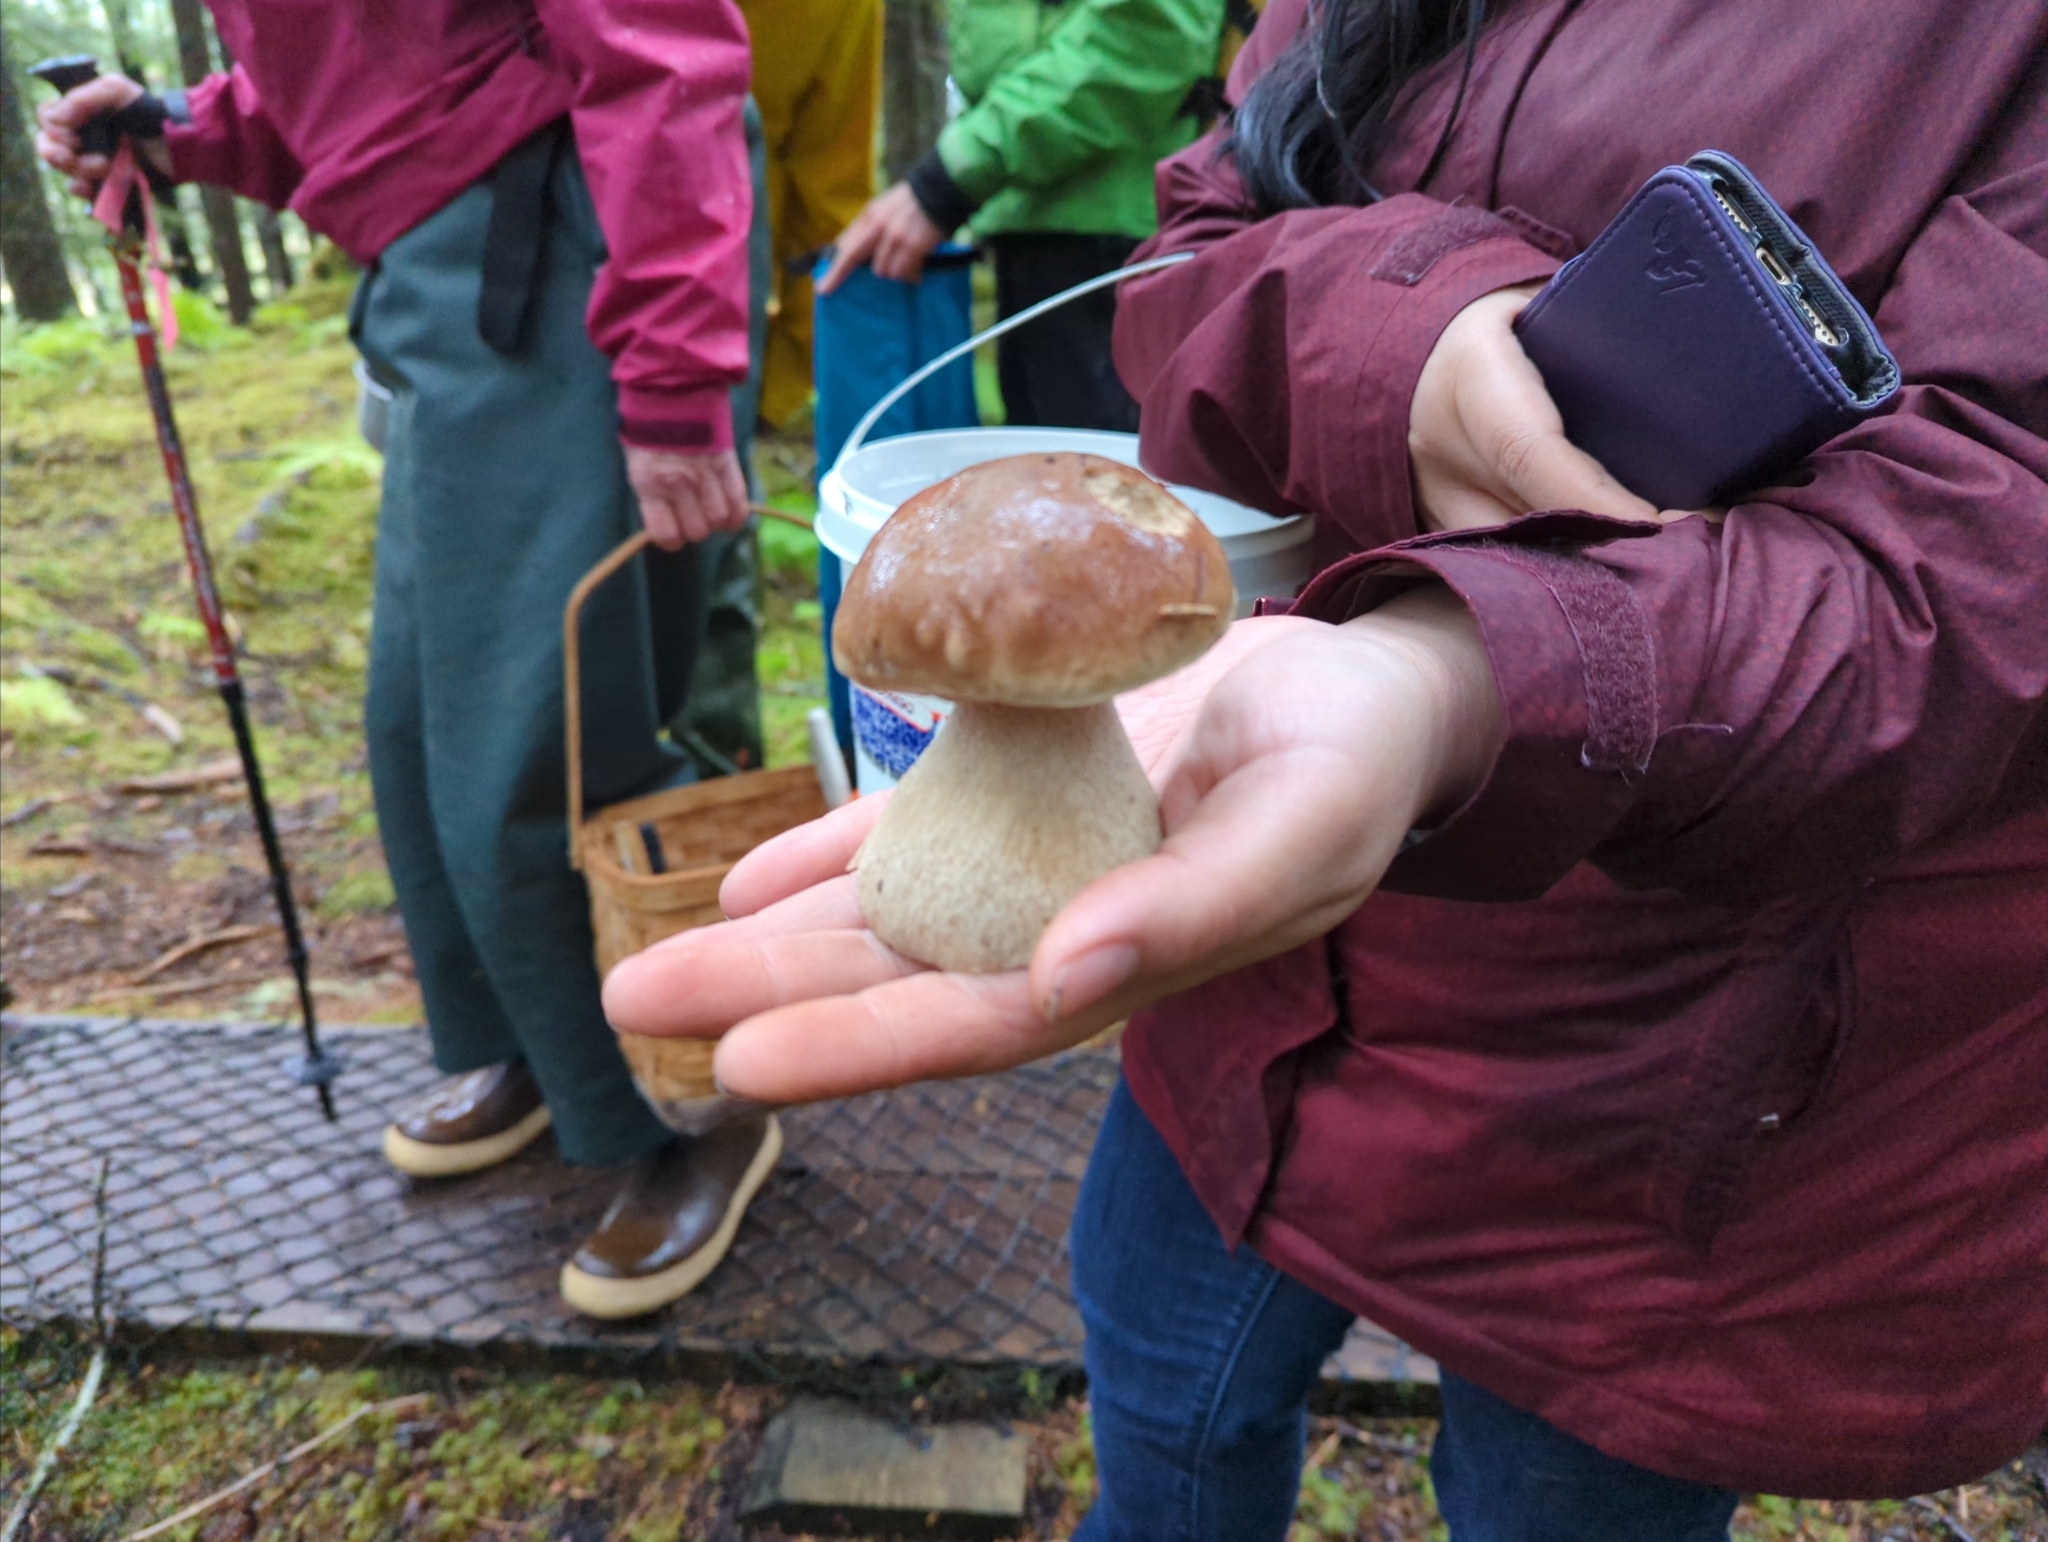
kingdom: Fungi
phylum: Basidiomycota
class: Agaricomycetes
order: Boletales
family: Boletaceae
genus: Boletus
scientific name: Boletus edulis
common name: Cep
